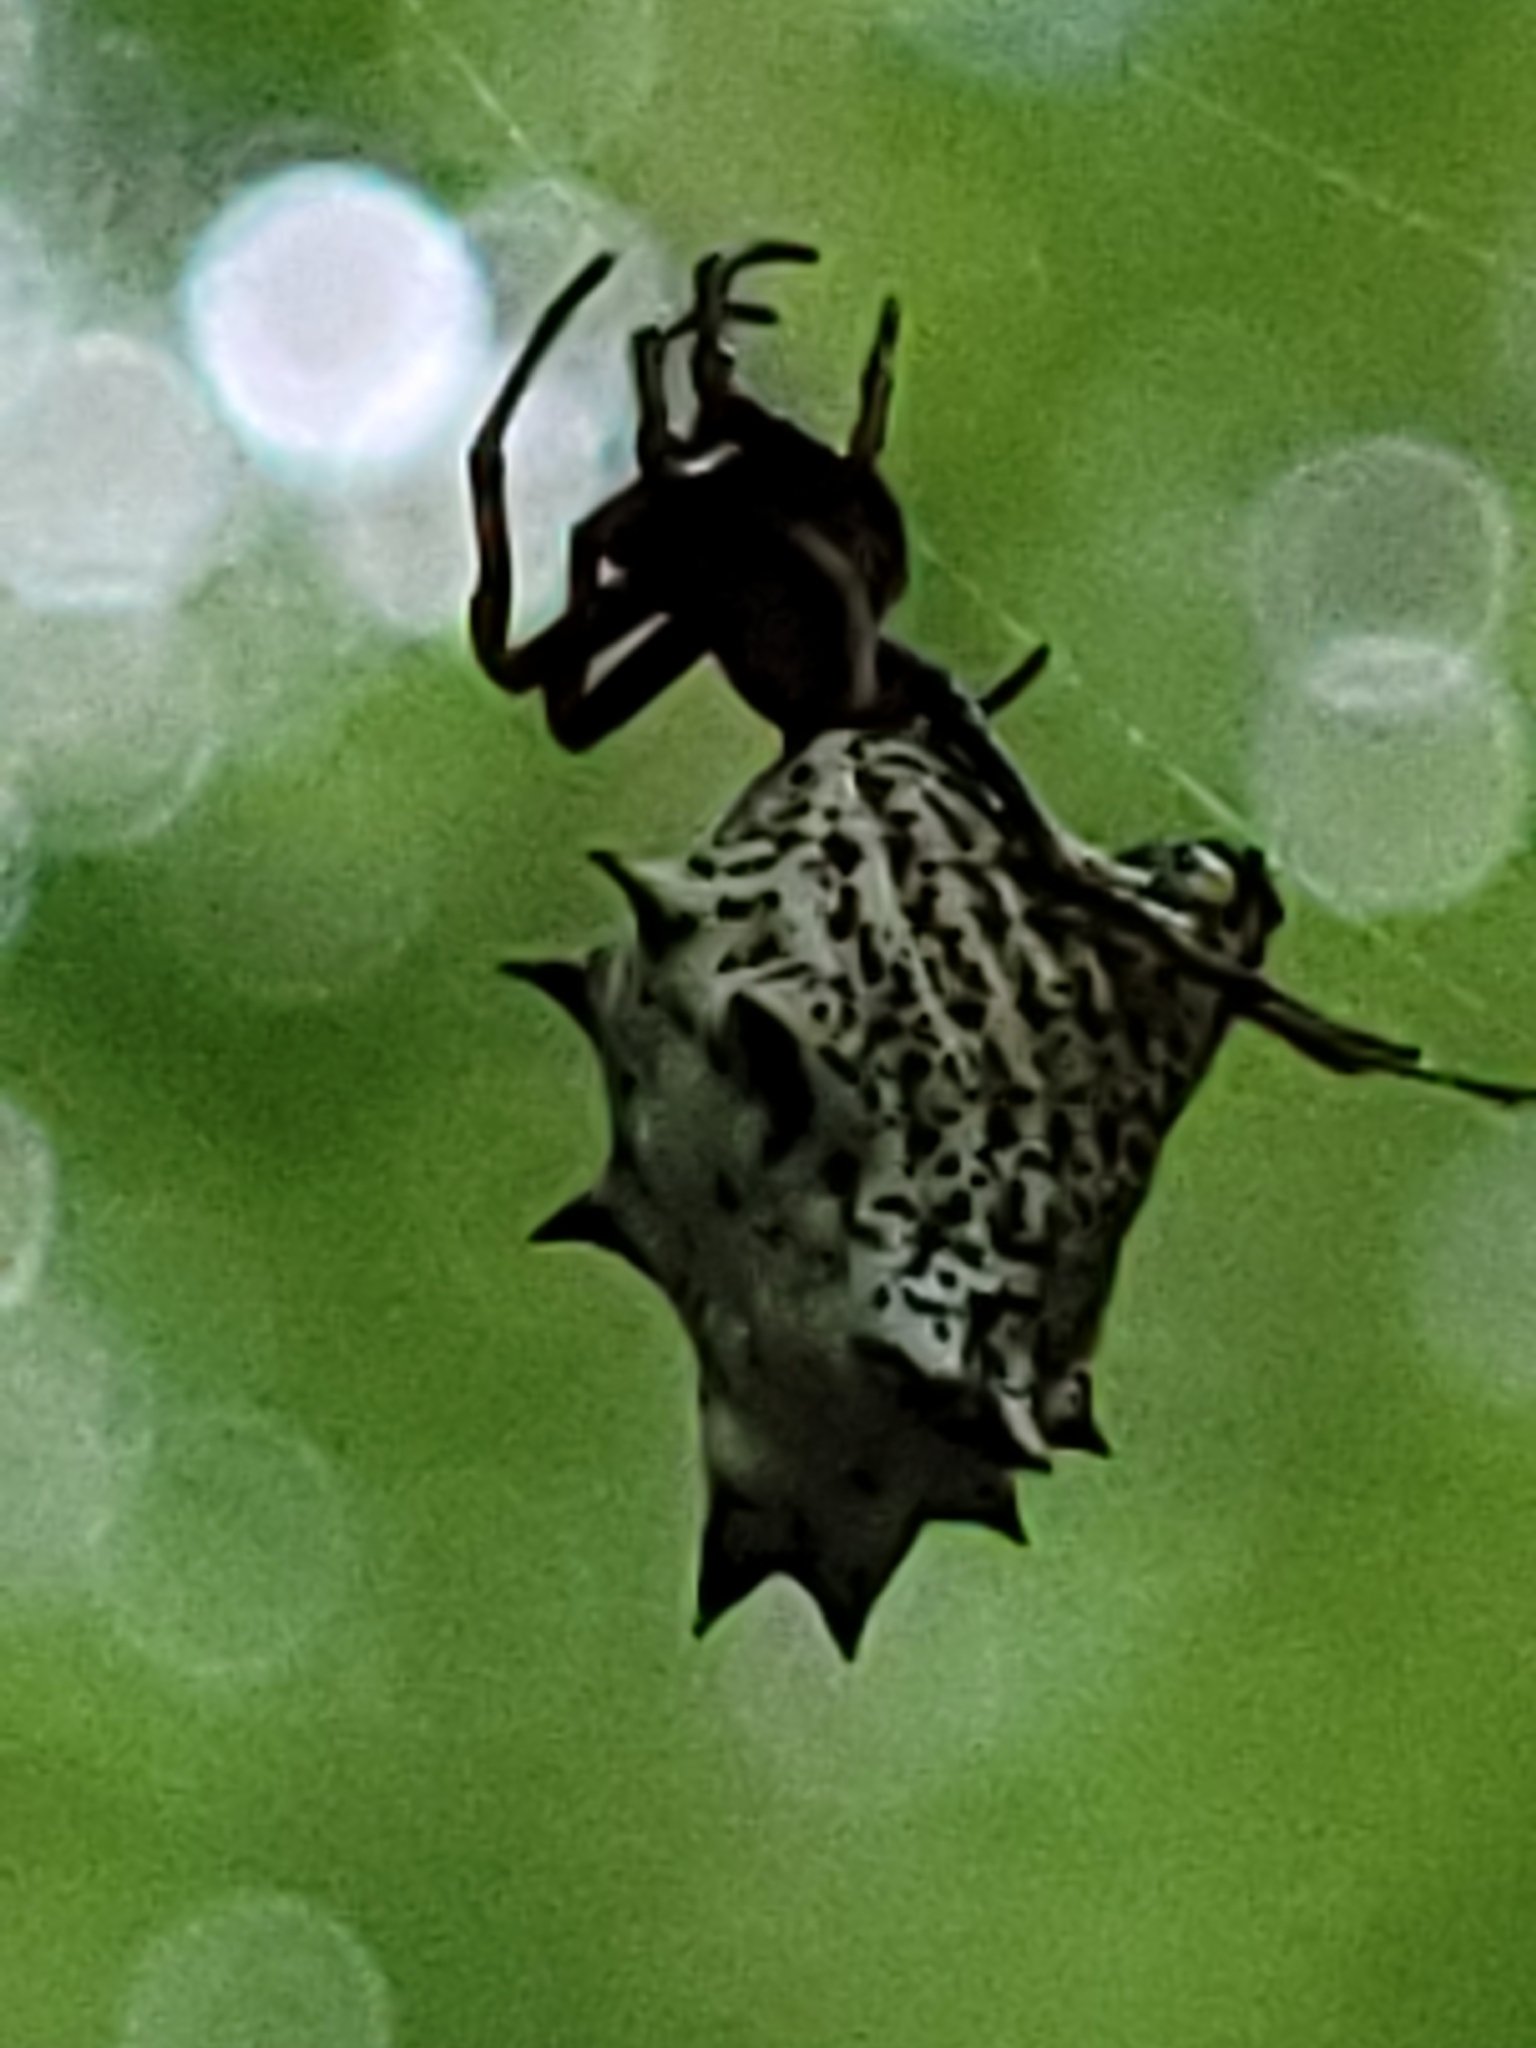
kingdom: Animalia
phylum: Arthropoda
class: Arachnida
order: Araneae
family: Araneidae
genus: Micrathena
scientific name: Micrathena gracilis
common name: Orb weavers
